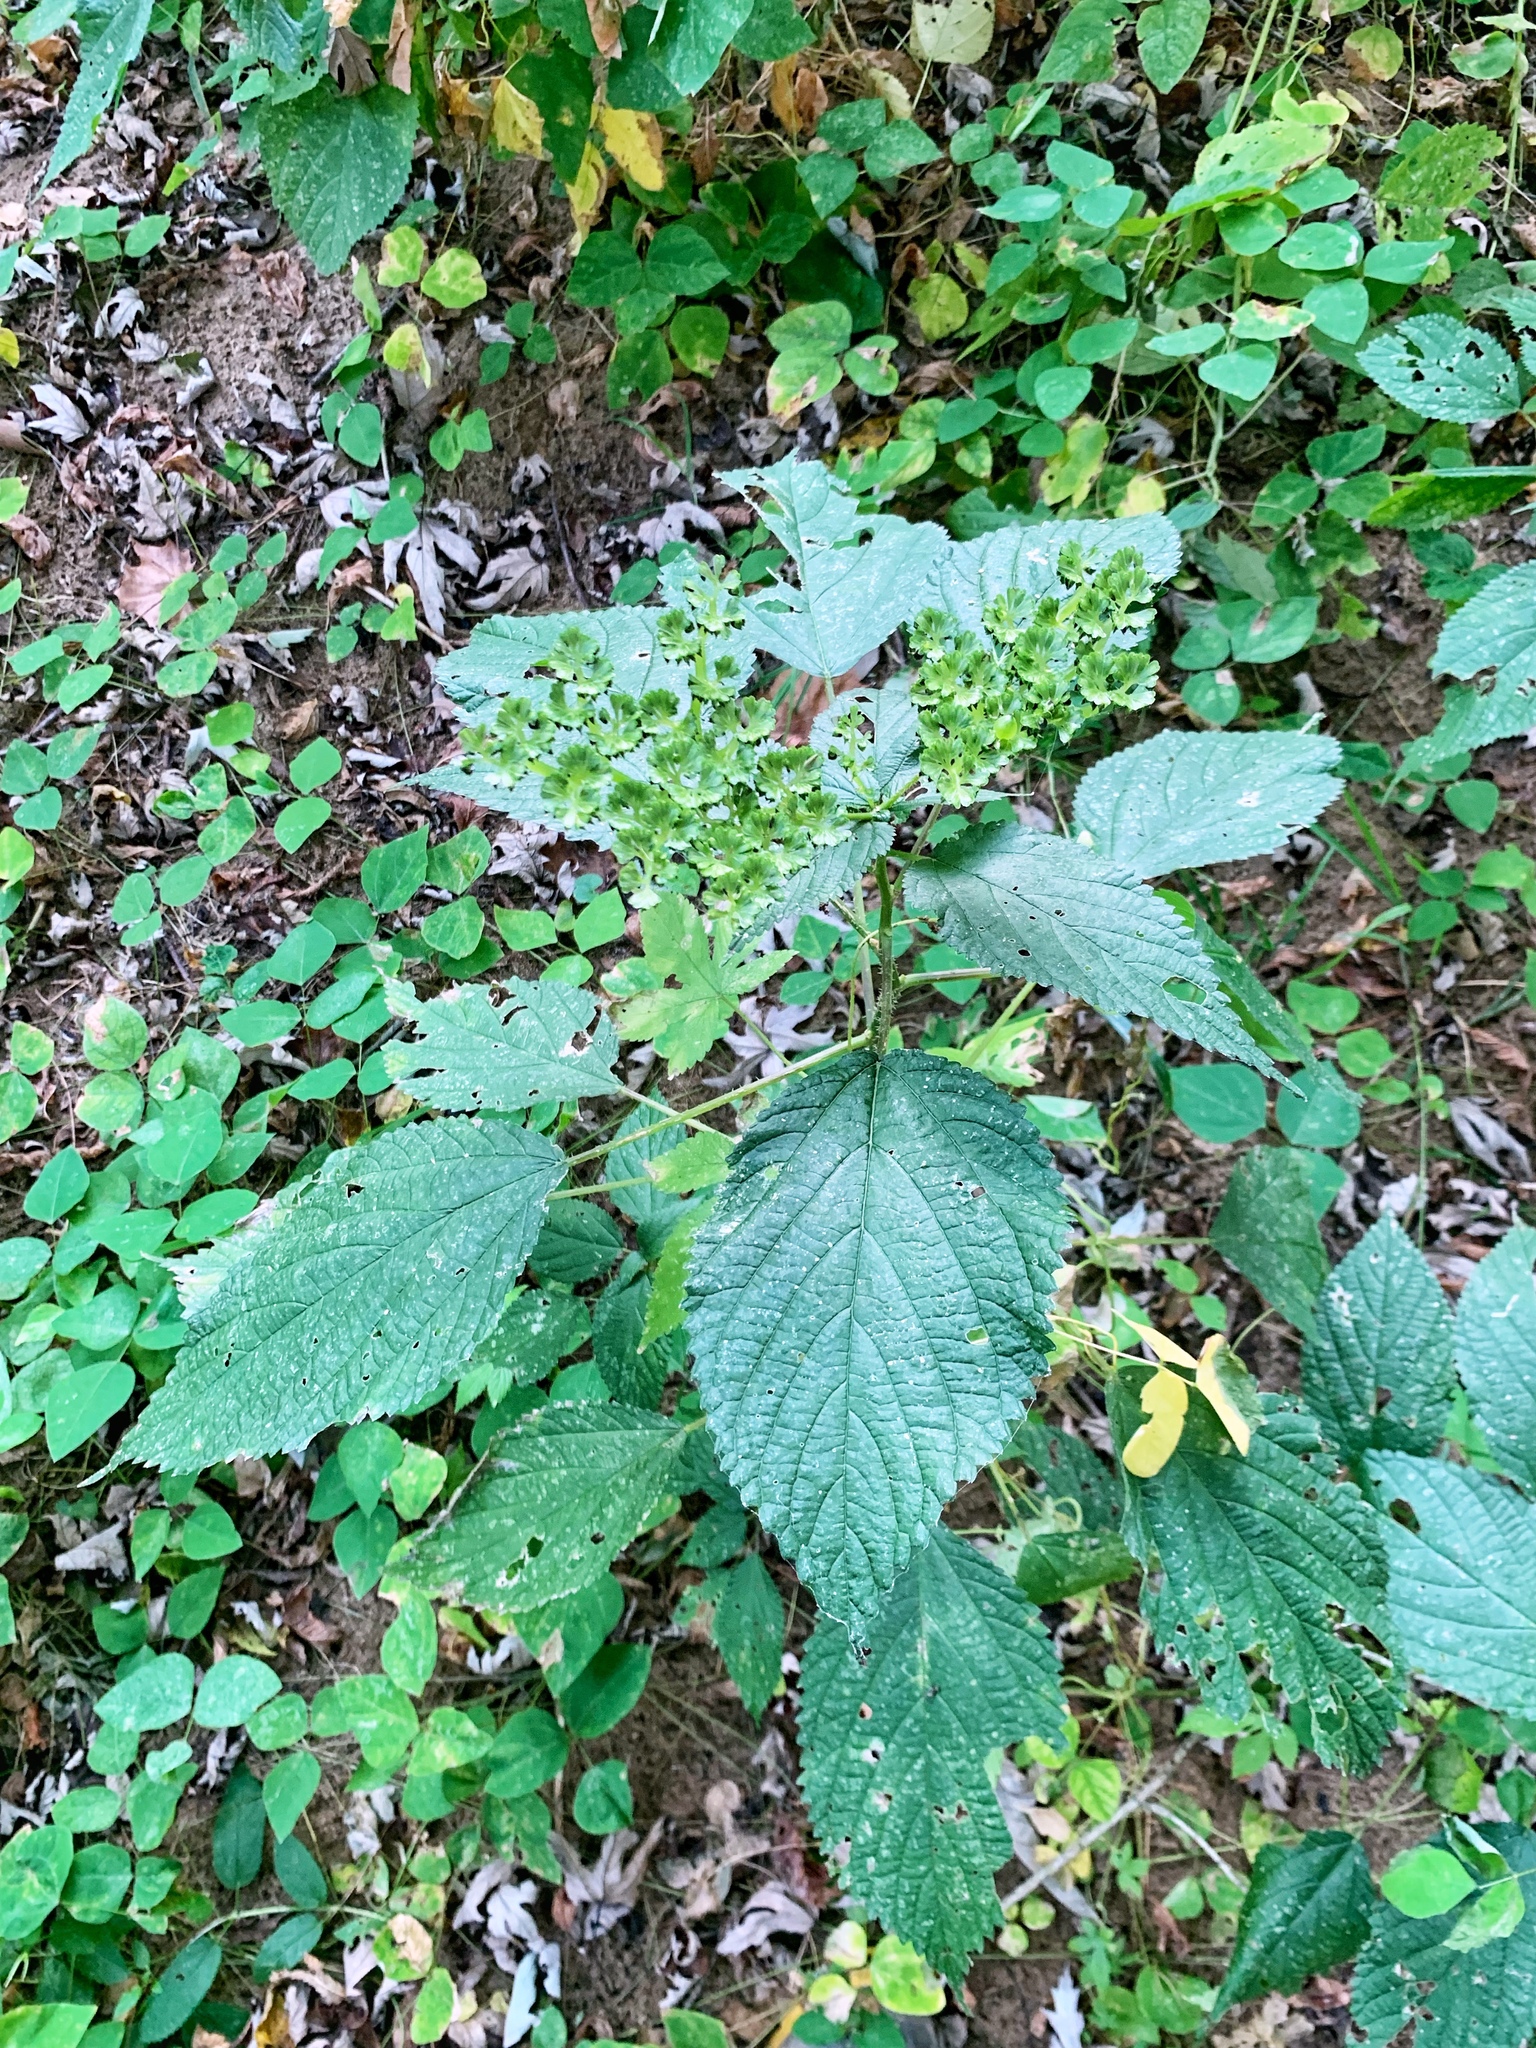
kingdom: Plantae
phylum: Tracheophyta
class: Magnoliopsida
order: Rosales
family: Urticaceae
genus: Laportea
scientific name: Laportea canadensis
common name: Canada nettle
